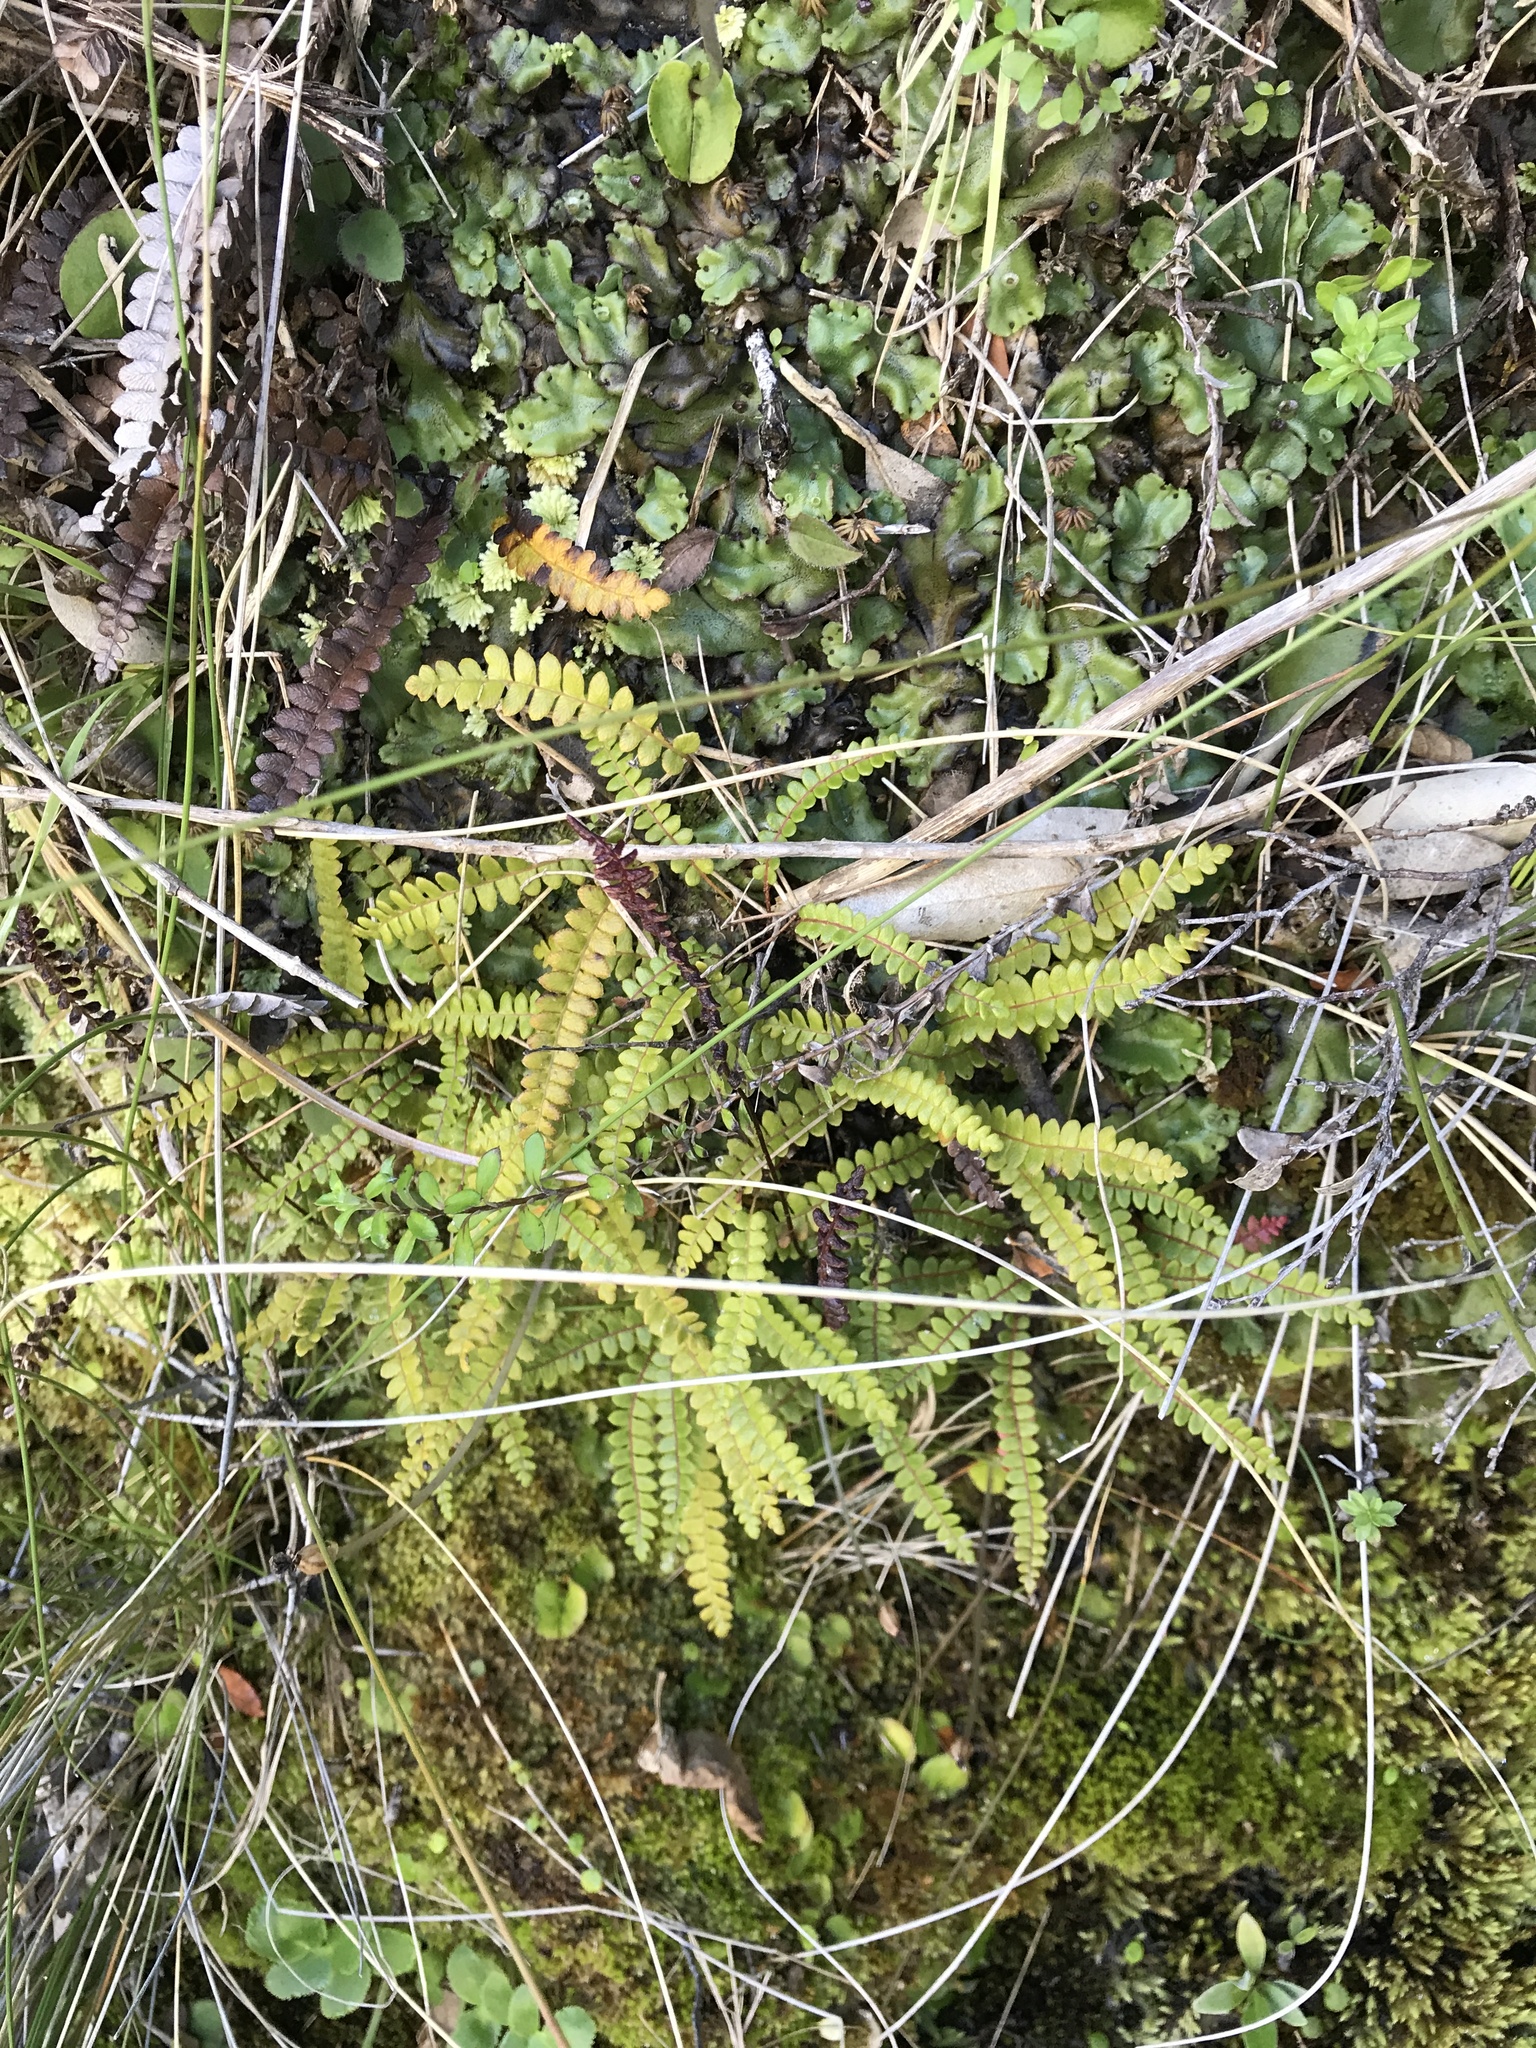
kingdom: Plantae
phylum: Tracheophyta
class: Polypodiopsida
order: Polypodiales
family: Blechnaceae
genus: Austroblechnum
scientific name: Austroblechnum penna-marina
